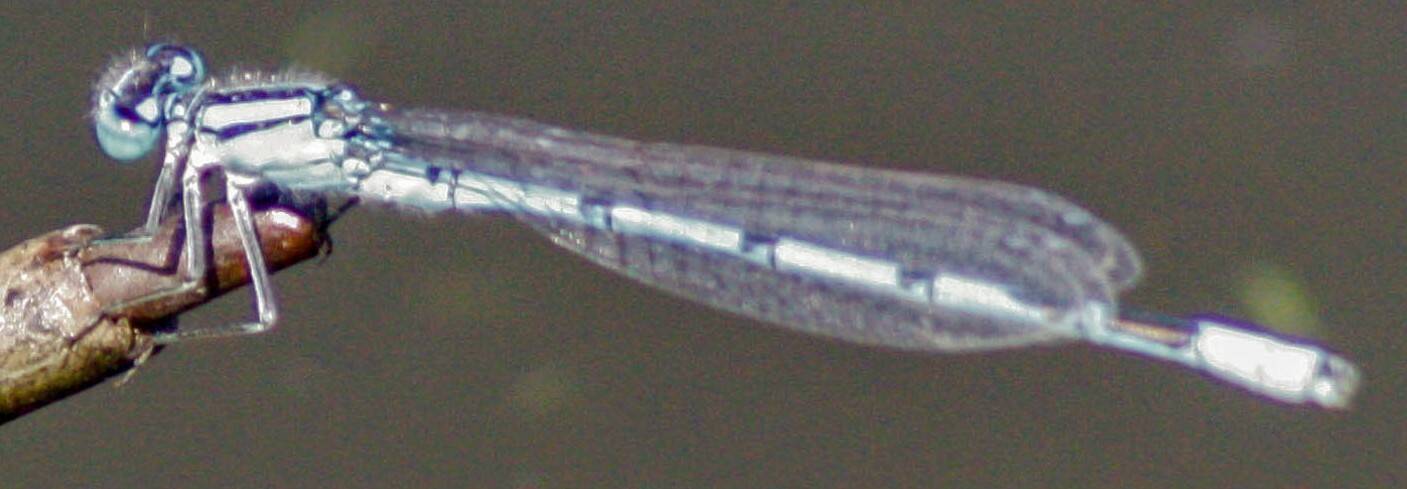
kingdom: Animalia
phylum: Arthropoda
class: Insecta
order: Odonata
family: Coenagrionidae
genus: Enallagma
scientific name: Enallagma cyathigerum
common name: Common blue damselfly
